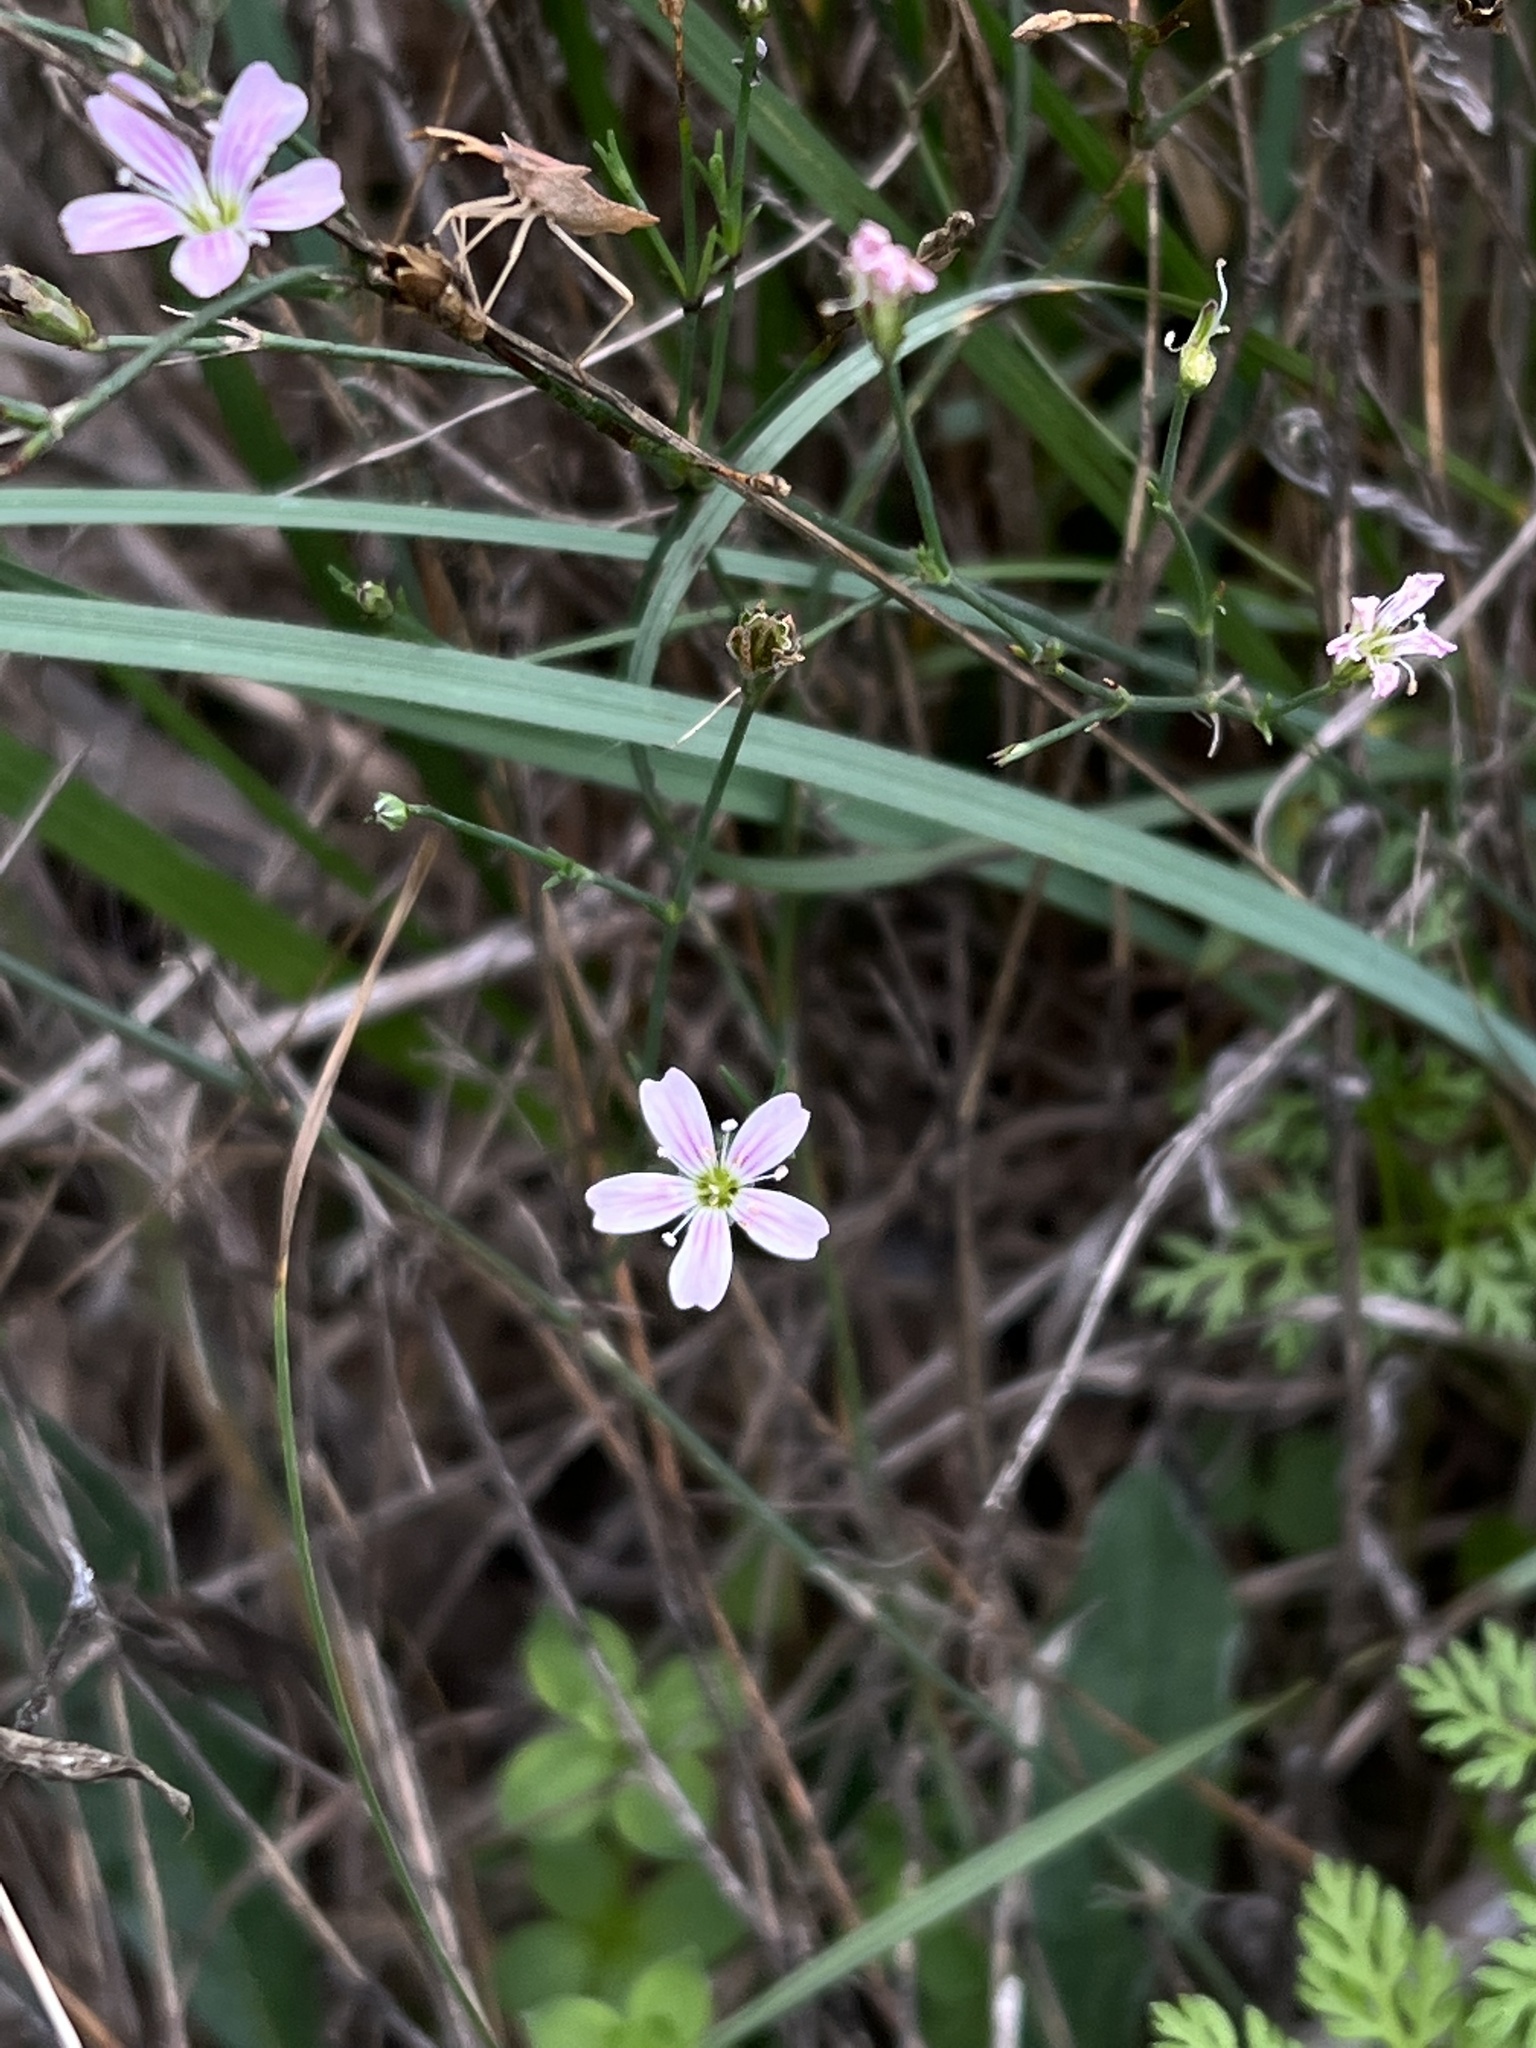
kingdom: Plantae
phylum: Tracheophyta
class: Magnoliopsida
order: Caryophyllales
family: Caryophyllaceae
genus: Petrorhagia
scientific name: Petrorhagia saxifraga
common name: Tunicflower
